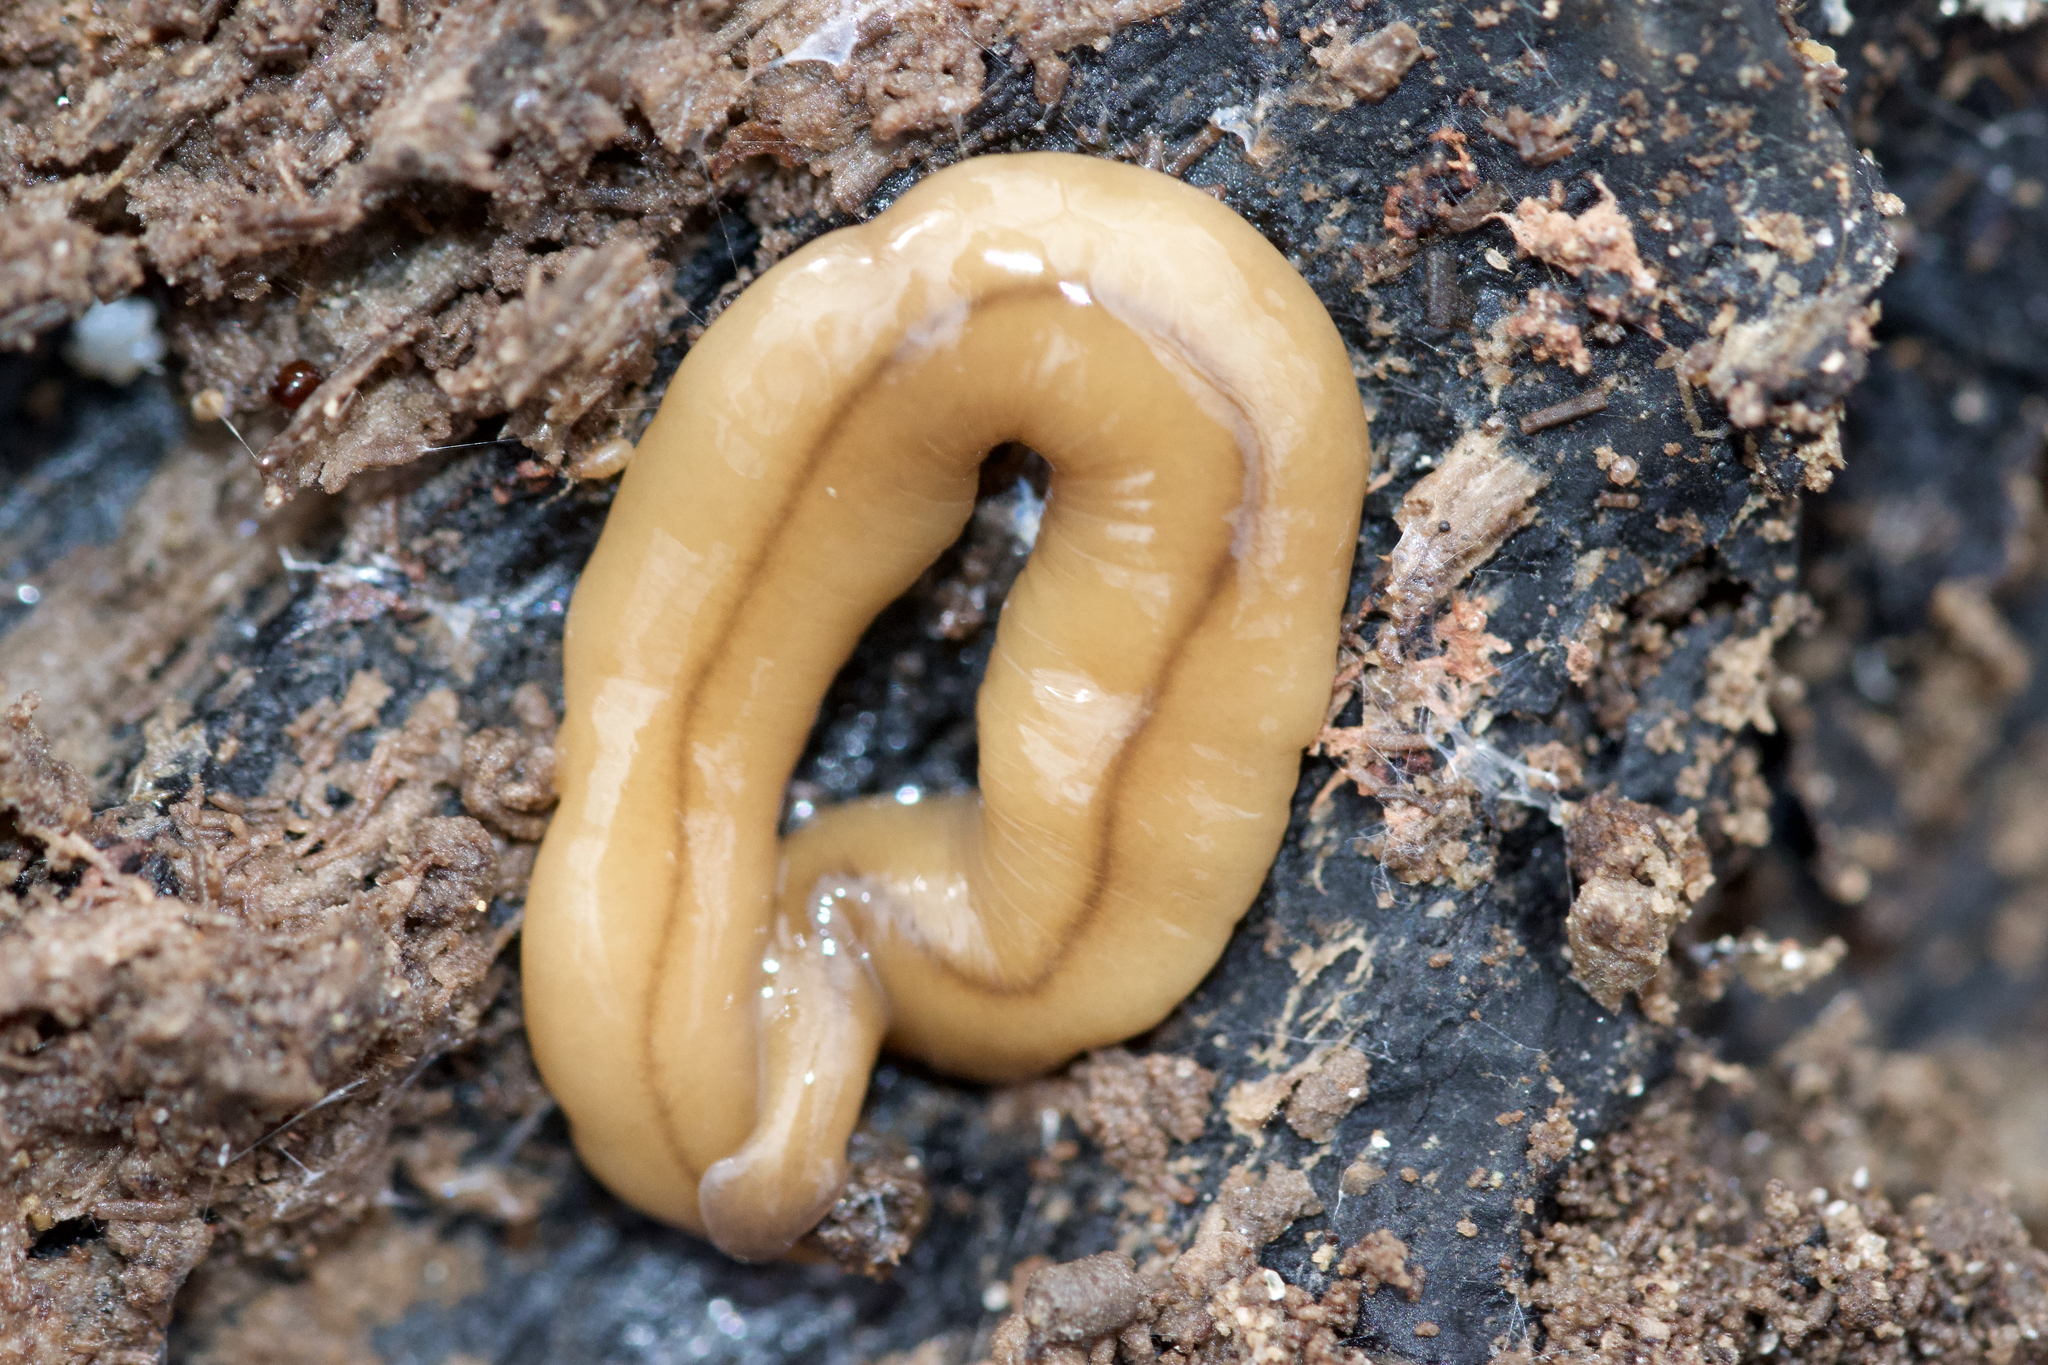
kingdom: Animalia
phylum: Platyhelminthes
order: Tricladida
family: Geoplanidae
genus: Bipalium
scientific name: Bipalium adventitium
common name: Land planarian
